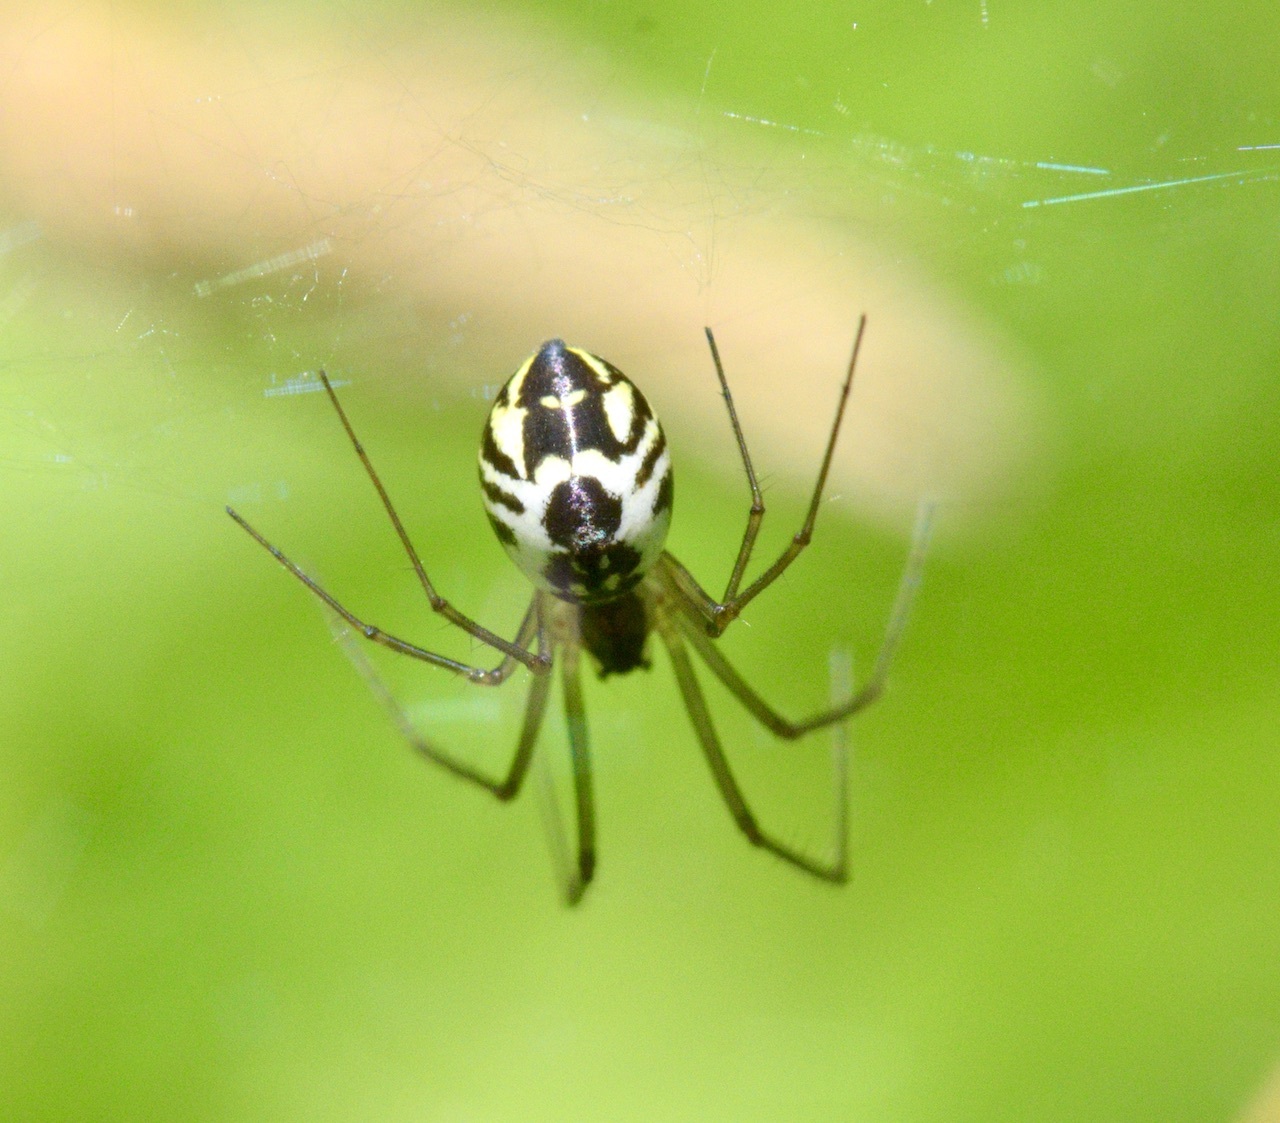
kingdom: Animalia
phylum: Arthropoda
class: Arachnida
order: Araneae
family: Linyphiidae
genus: Neriene
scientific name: Neriene radiata
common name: Filmy dome spider
